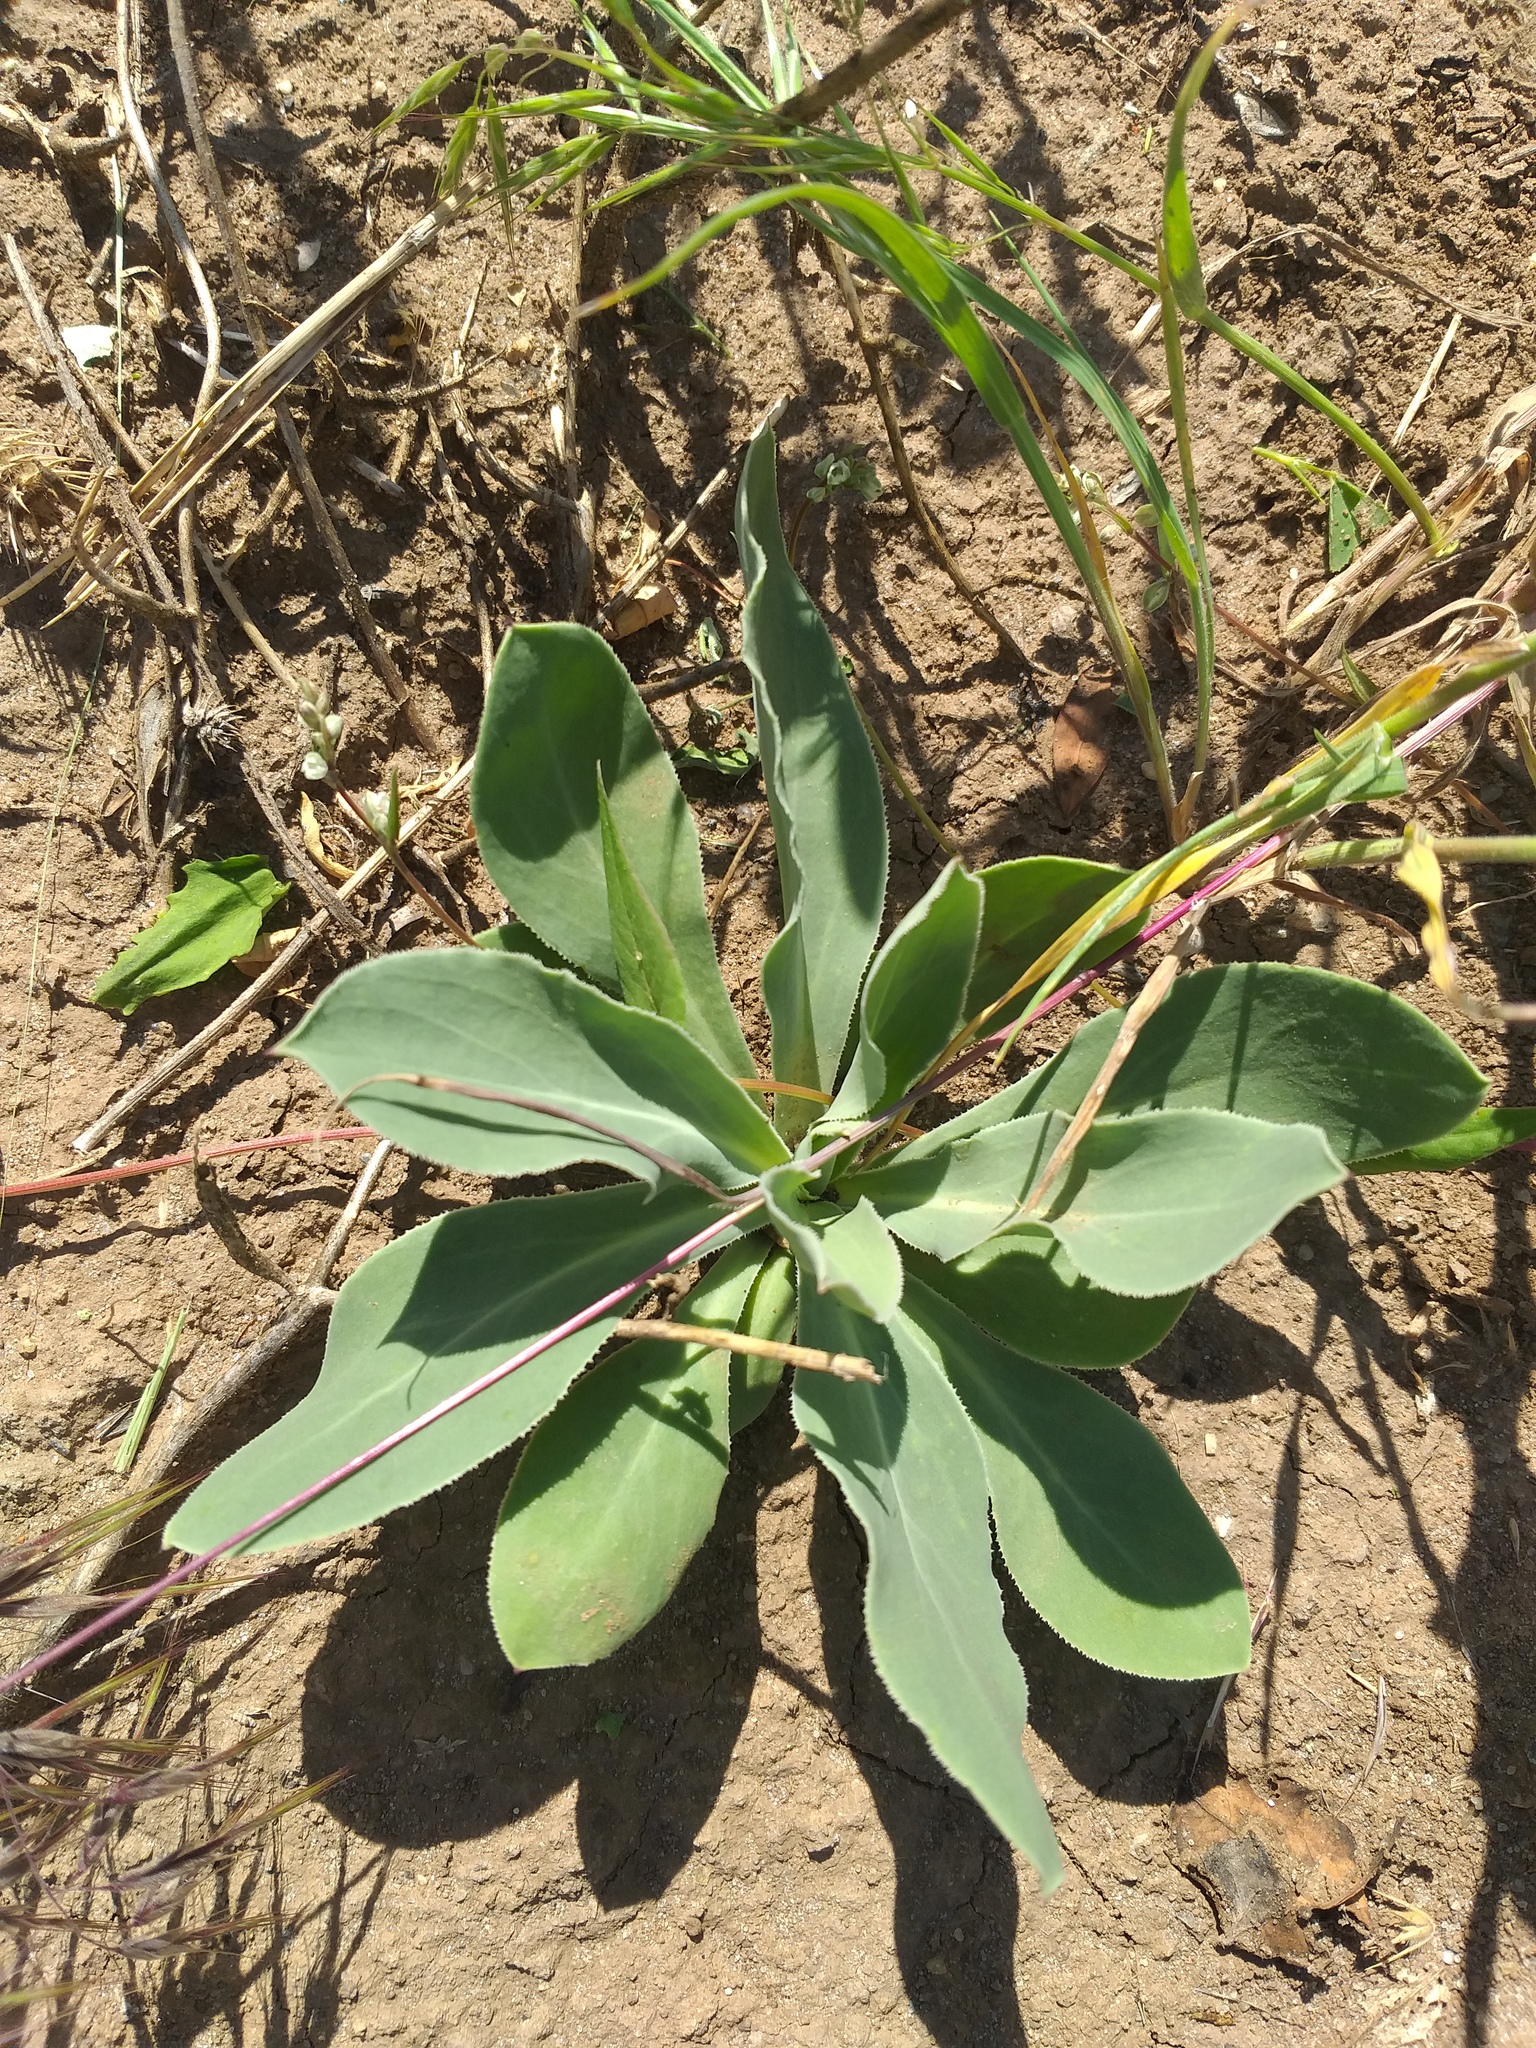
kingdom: Plantae
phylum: Tracheophyta
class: Magnoliopsida
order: Caryophyllales
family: Caryophyllaceae
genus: Silene
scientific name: Silene vulgaris
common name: Bladder campion
